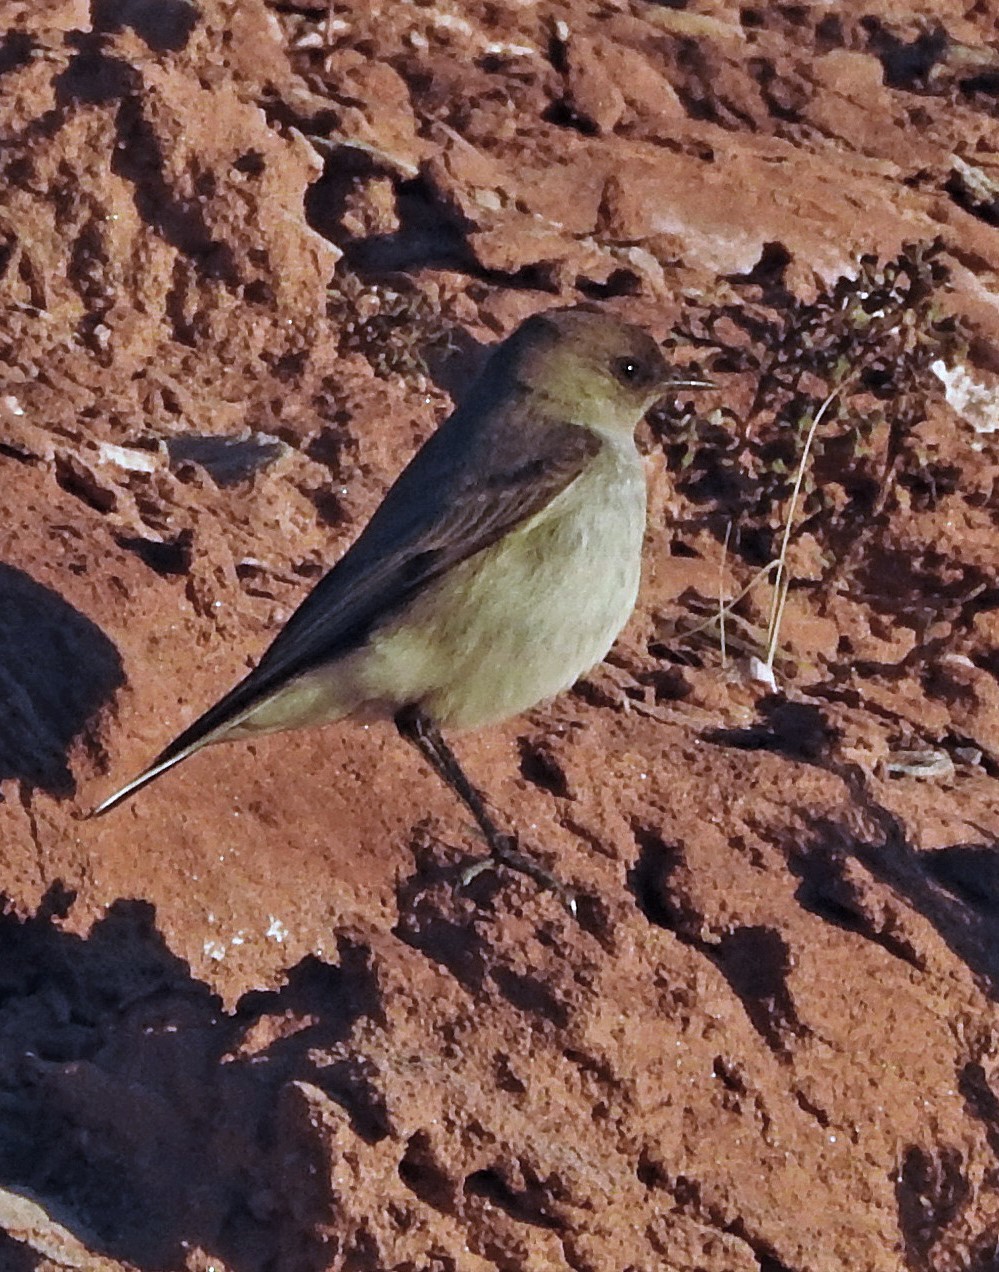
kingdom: Animalia
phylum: Chordata
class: Aves
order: Passeriformes
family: Tyrannidae
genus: Muscisaxicola
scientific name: Muscisaxicola maclovianus
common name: Dark-faced ground tyrant
